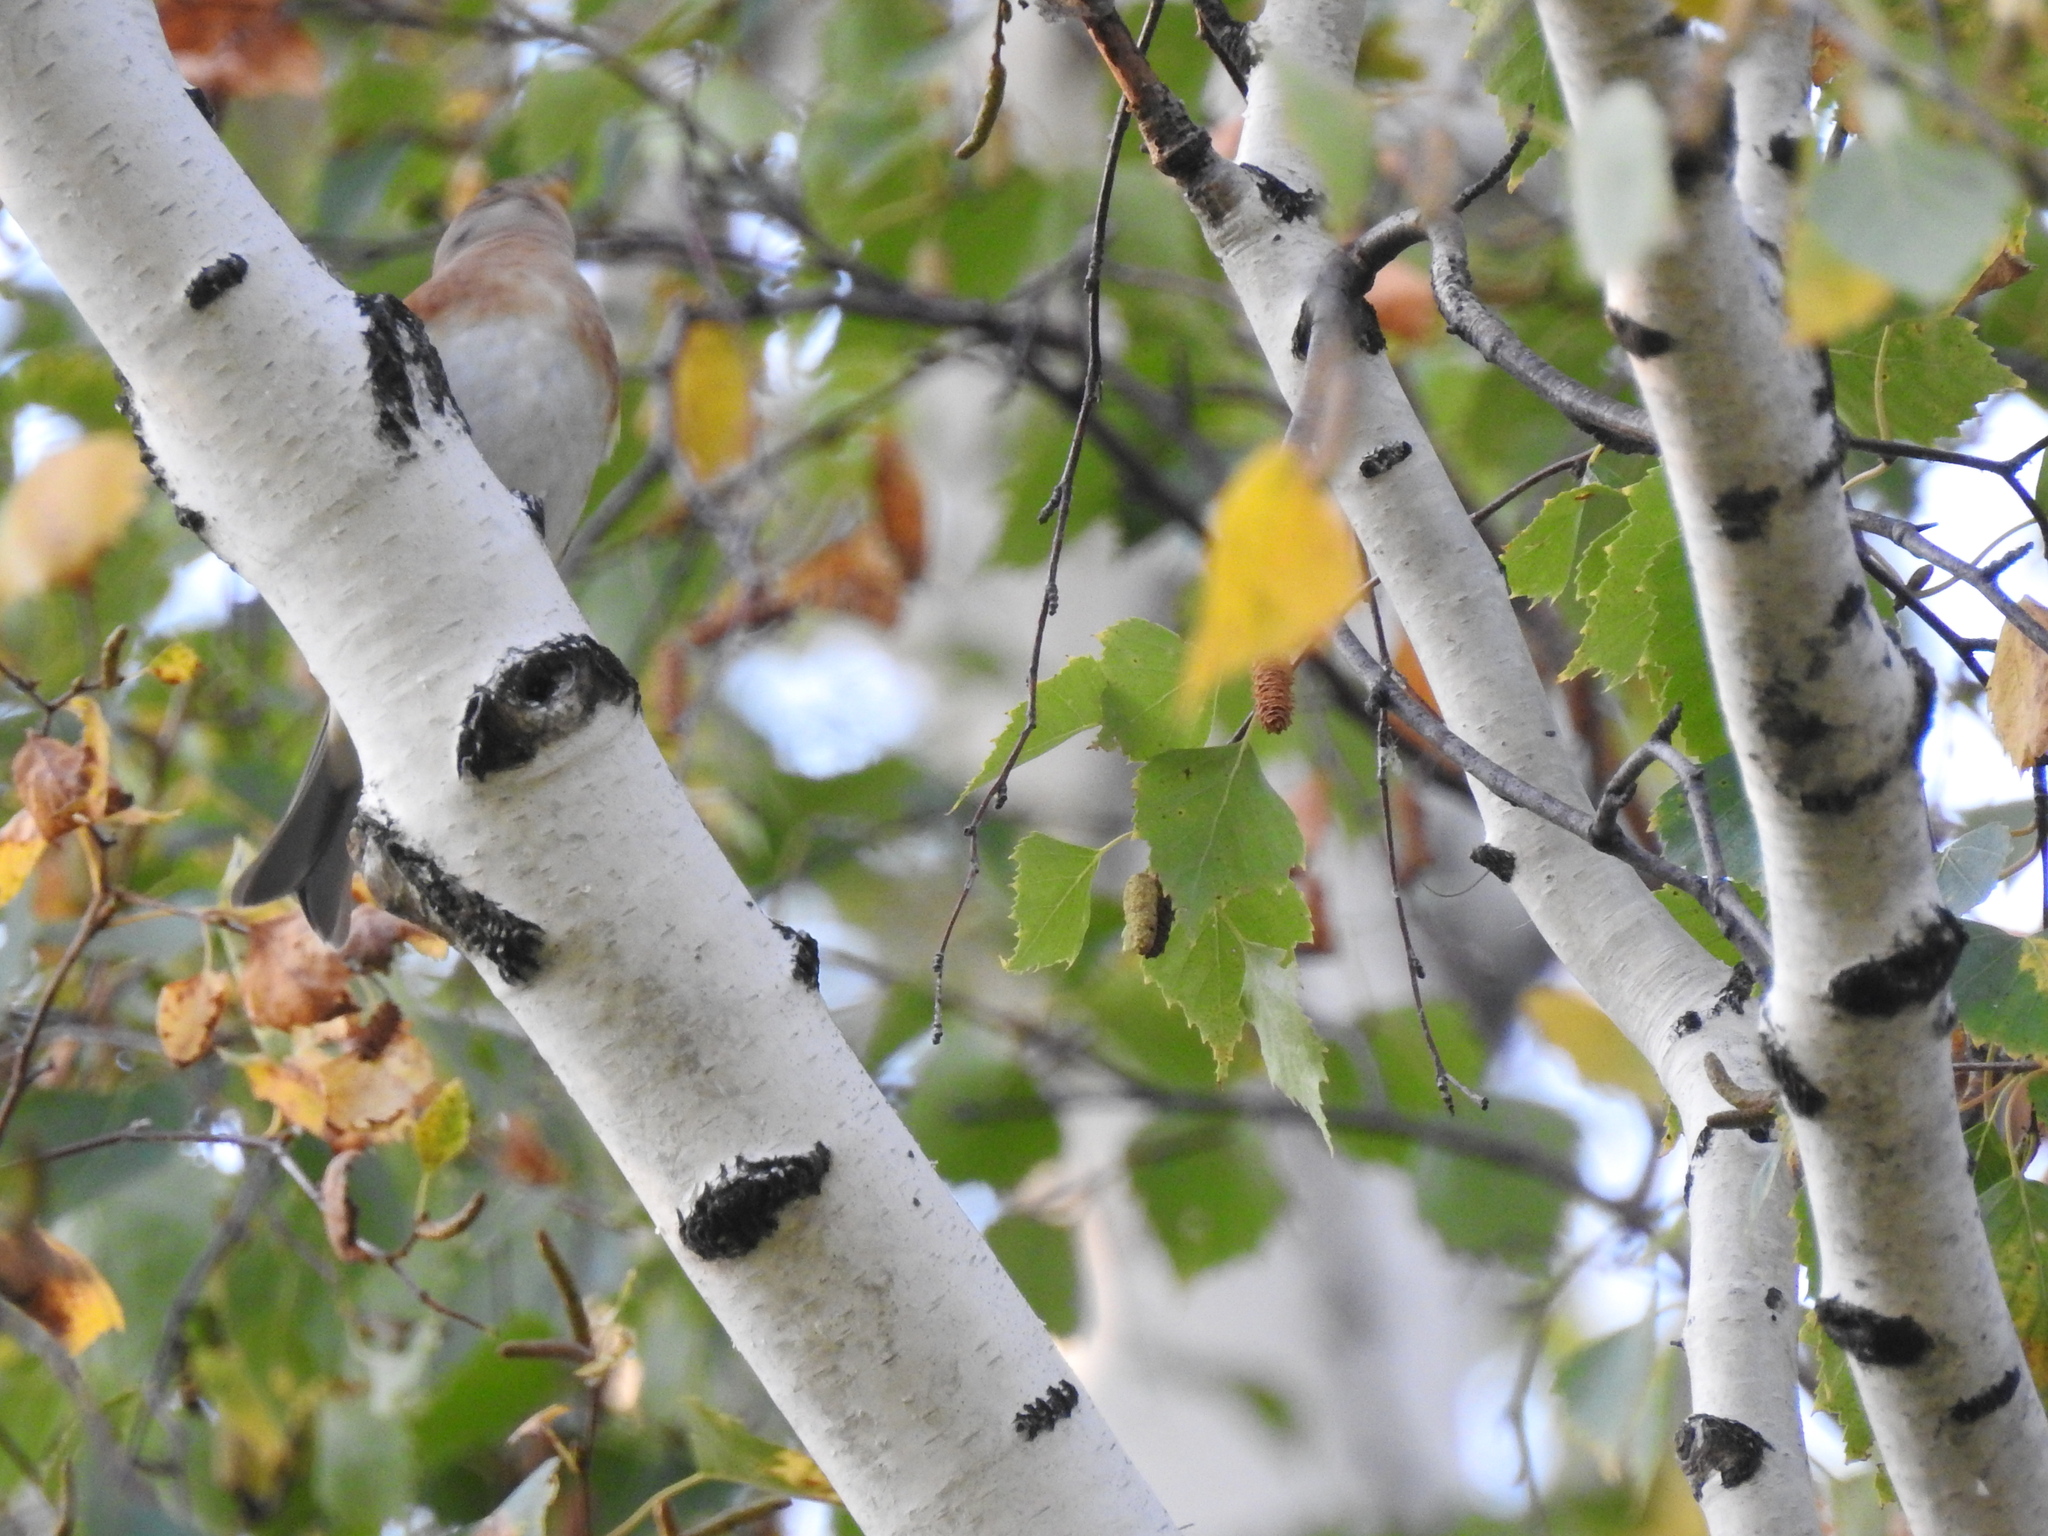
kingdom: Animalia
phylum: Chordata
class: Aves
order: Passeriformes
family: Fringillidae
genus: Fringilla
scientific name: Fringilla montifringilla
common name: Brambling
